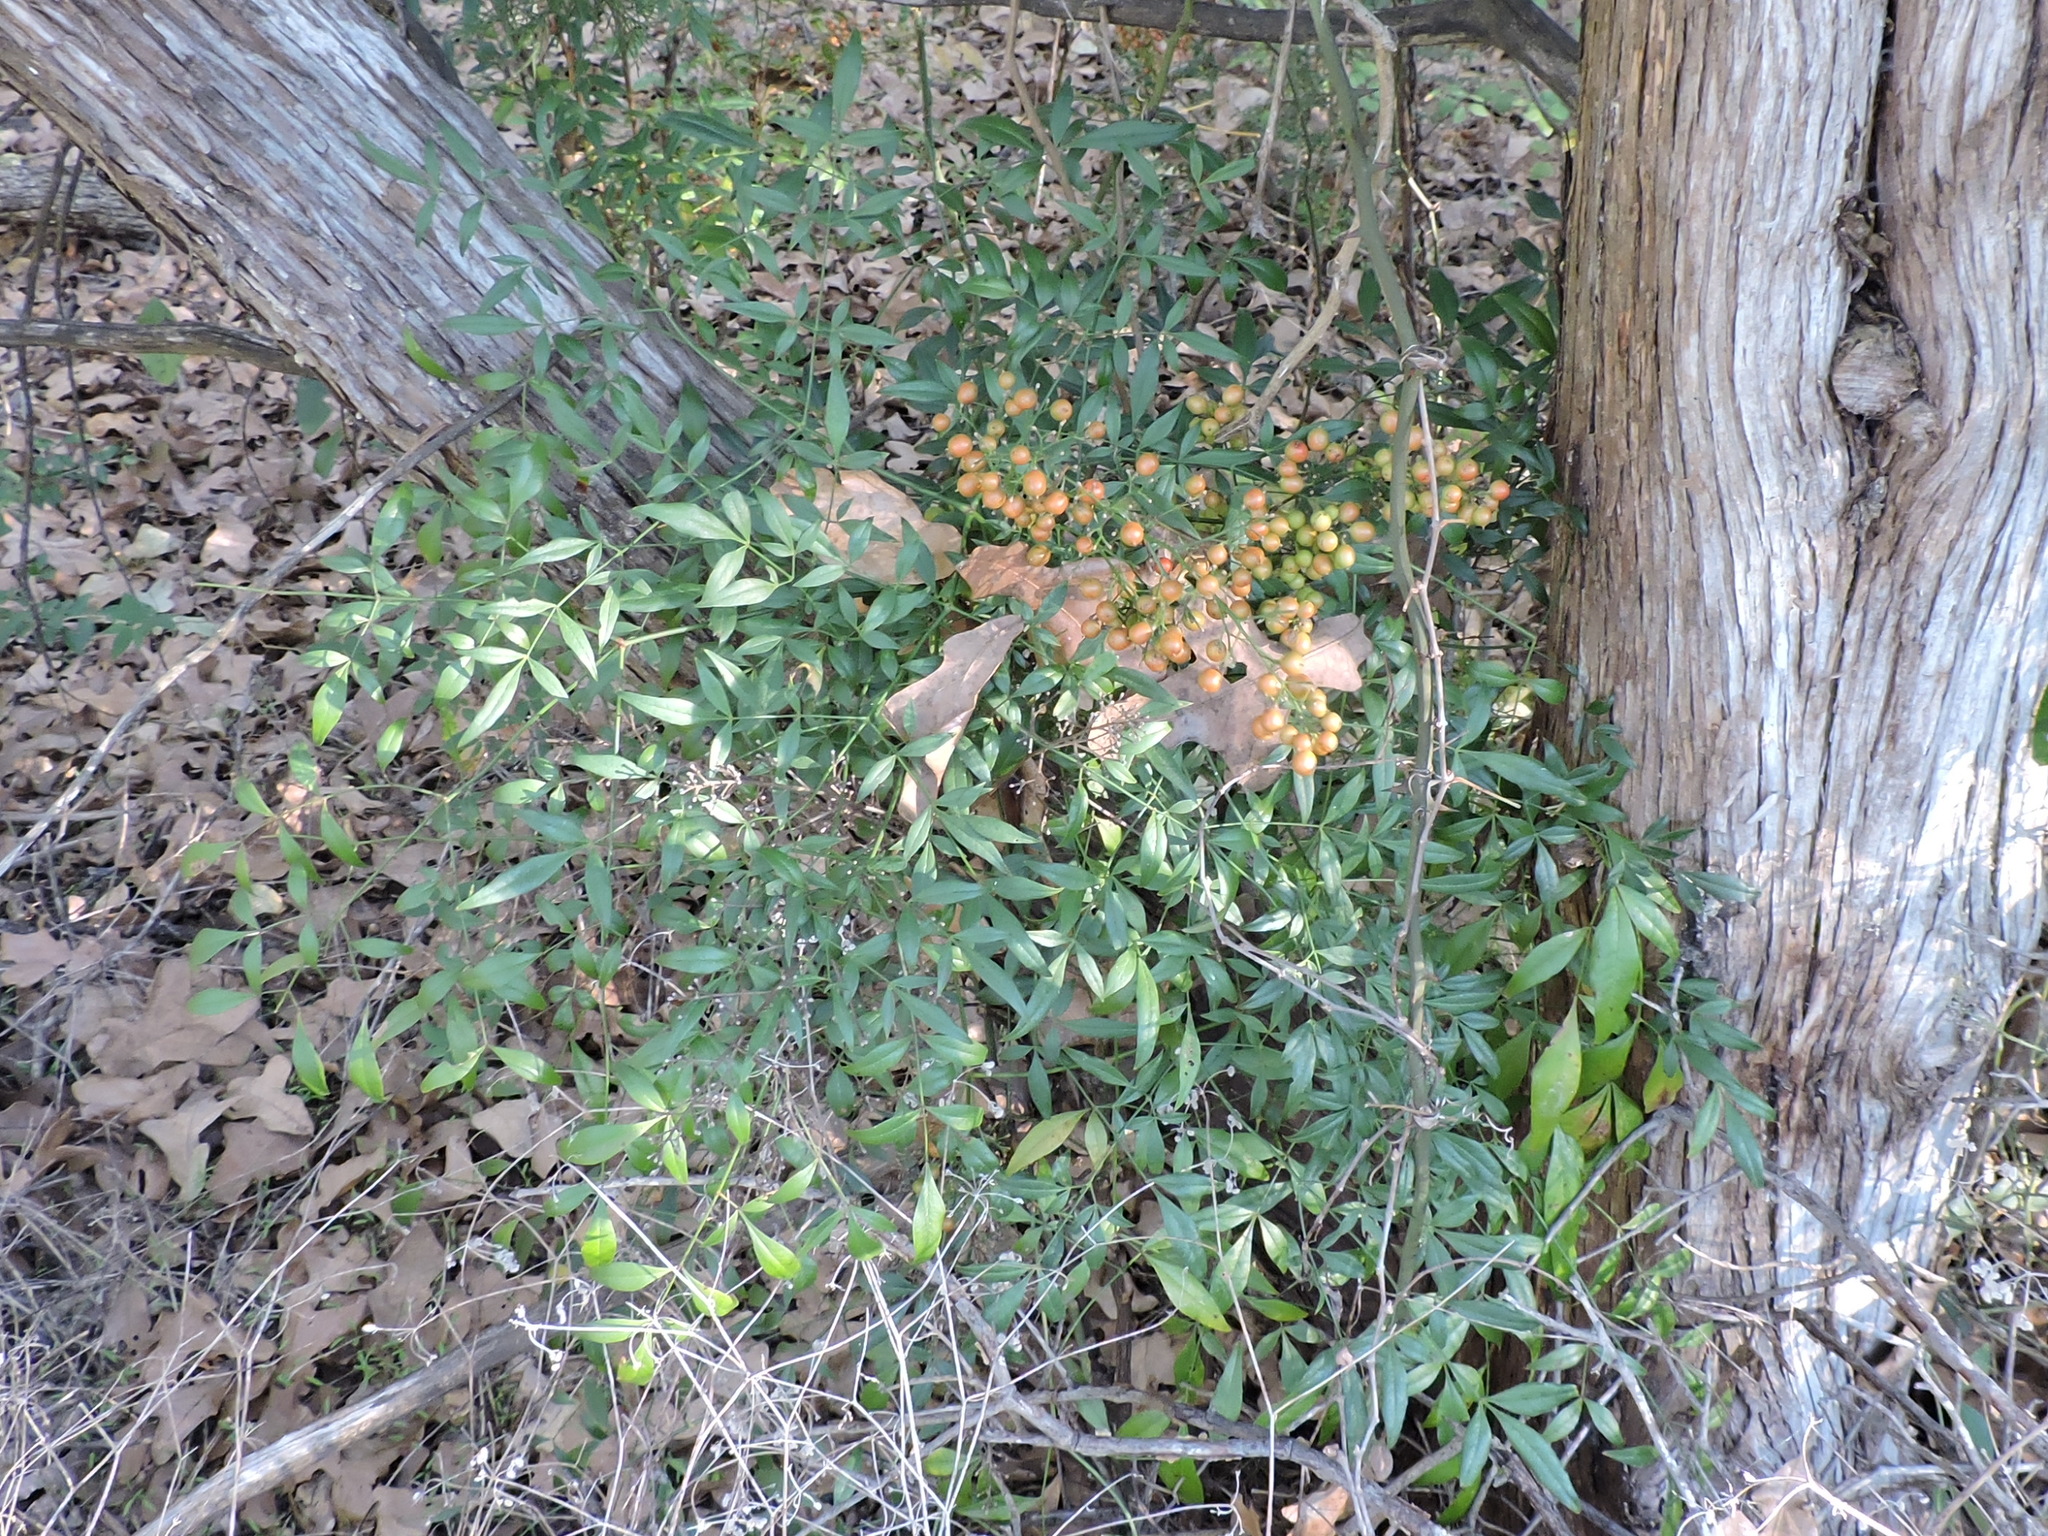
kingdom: Plantae
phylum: Tracheophyta
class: Magnoliopsida
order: Ranunculales
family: Berberidaceae
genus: Nandina
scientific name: Nandina domestica
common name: Sacred bamboo
